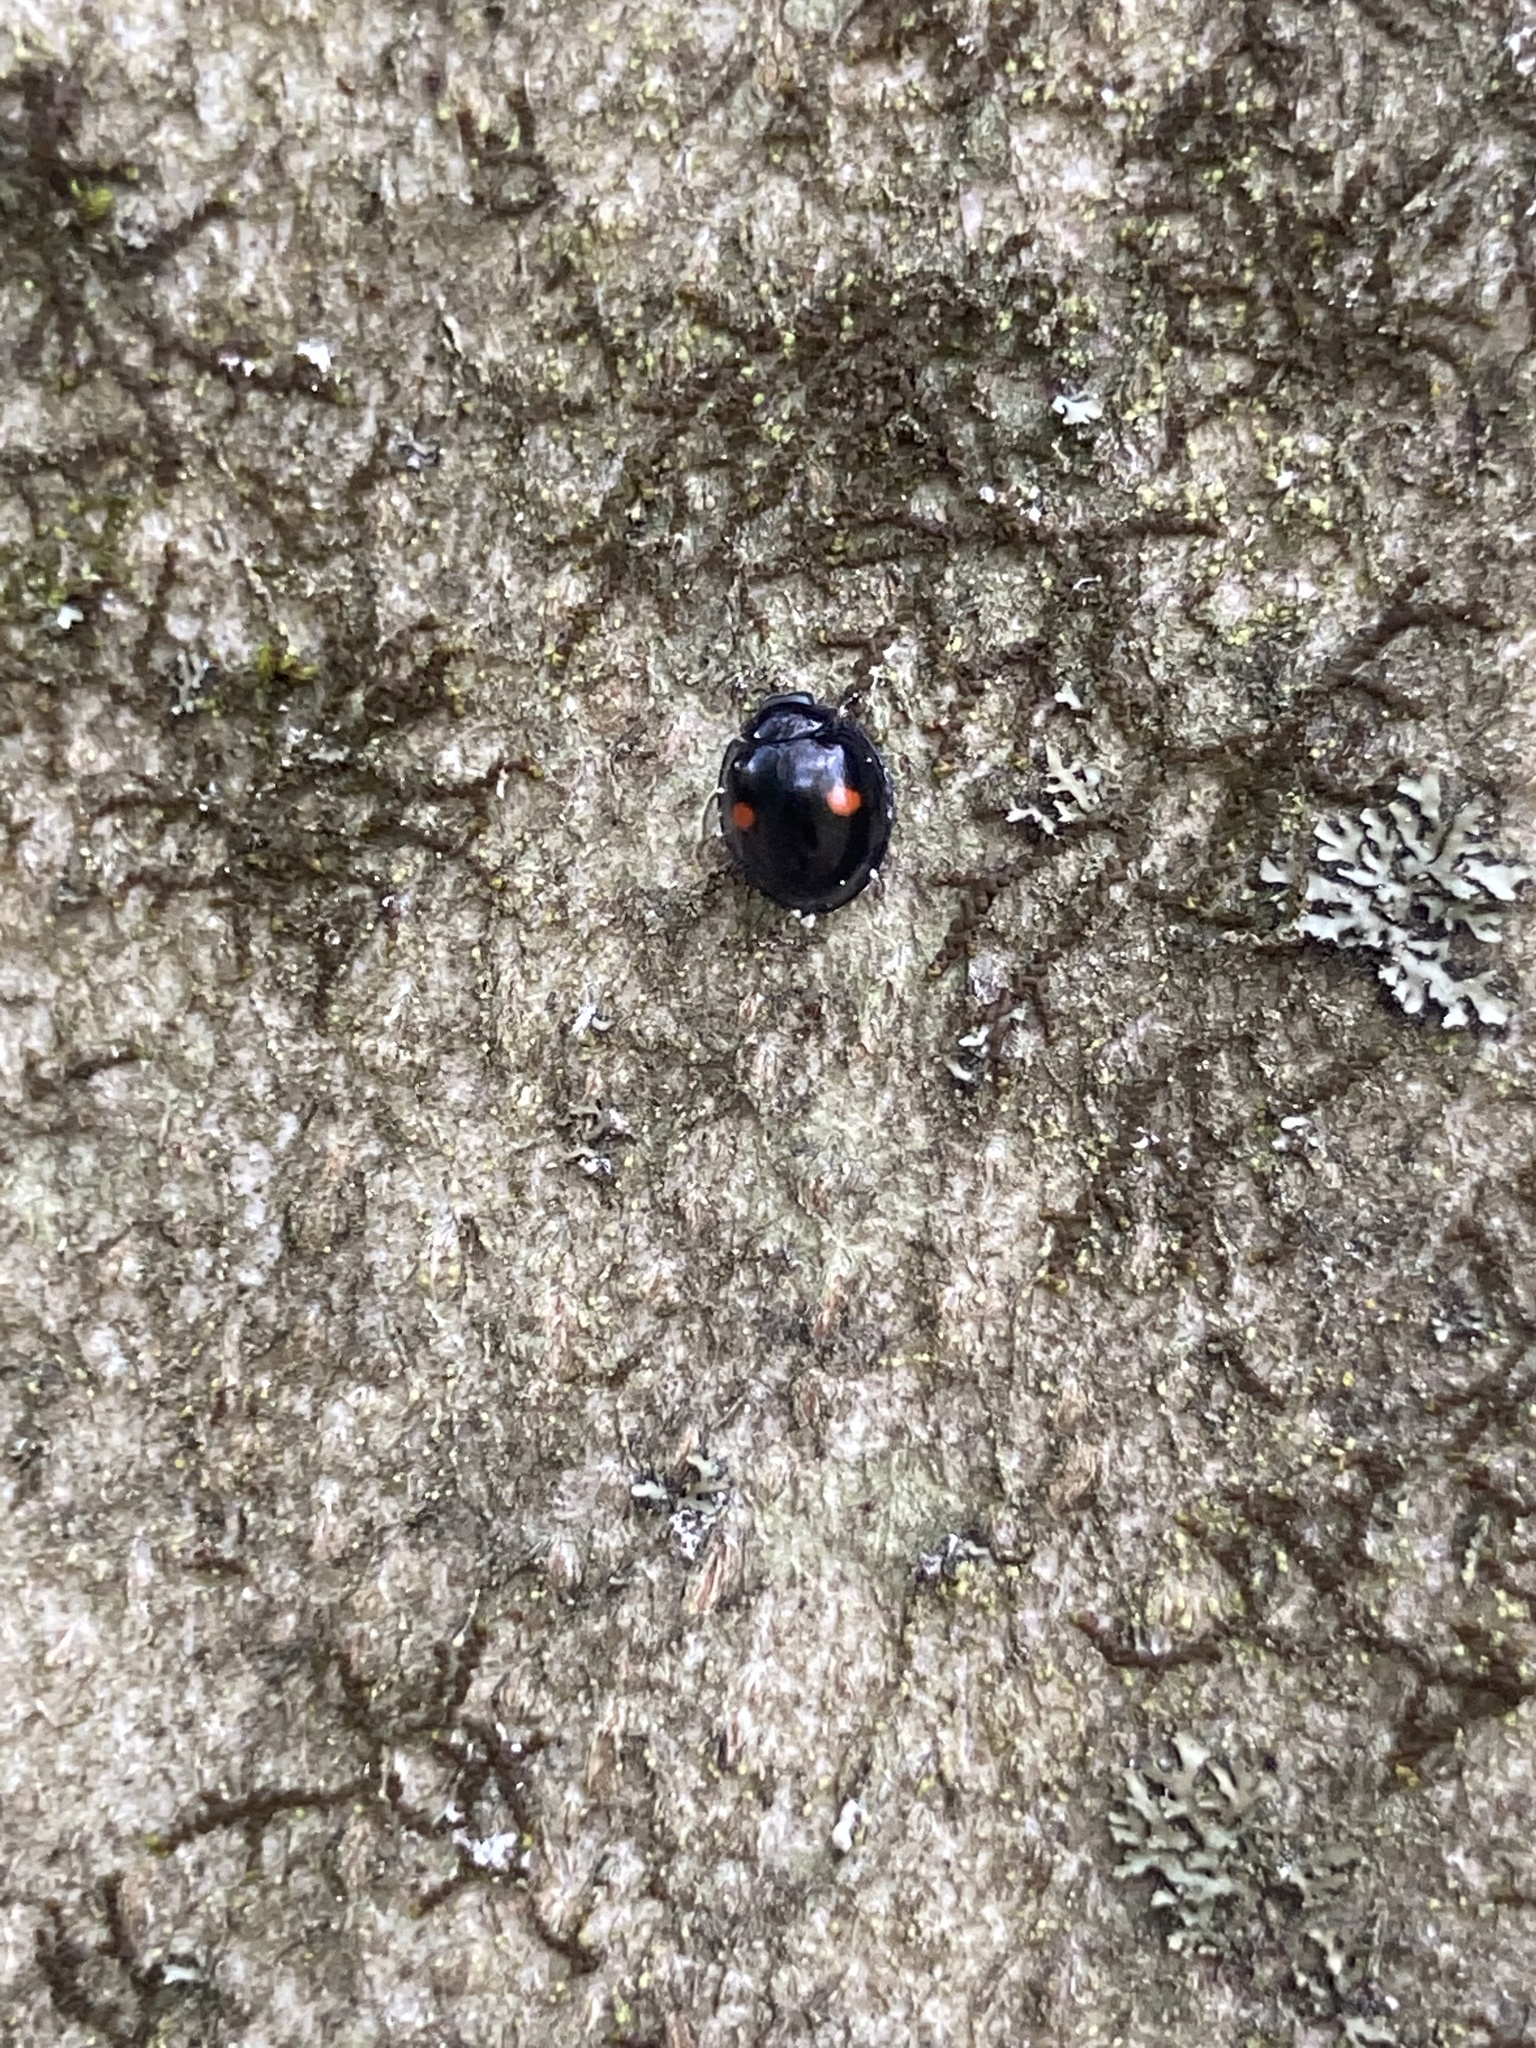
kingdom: Animalia
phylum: Arthropoda
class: Insecta
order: Coleoptera
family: Coccinellidae
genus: Chilocorus
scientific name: Chilocorus stigma
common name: Twicestabbed lady beetle
